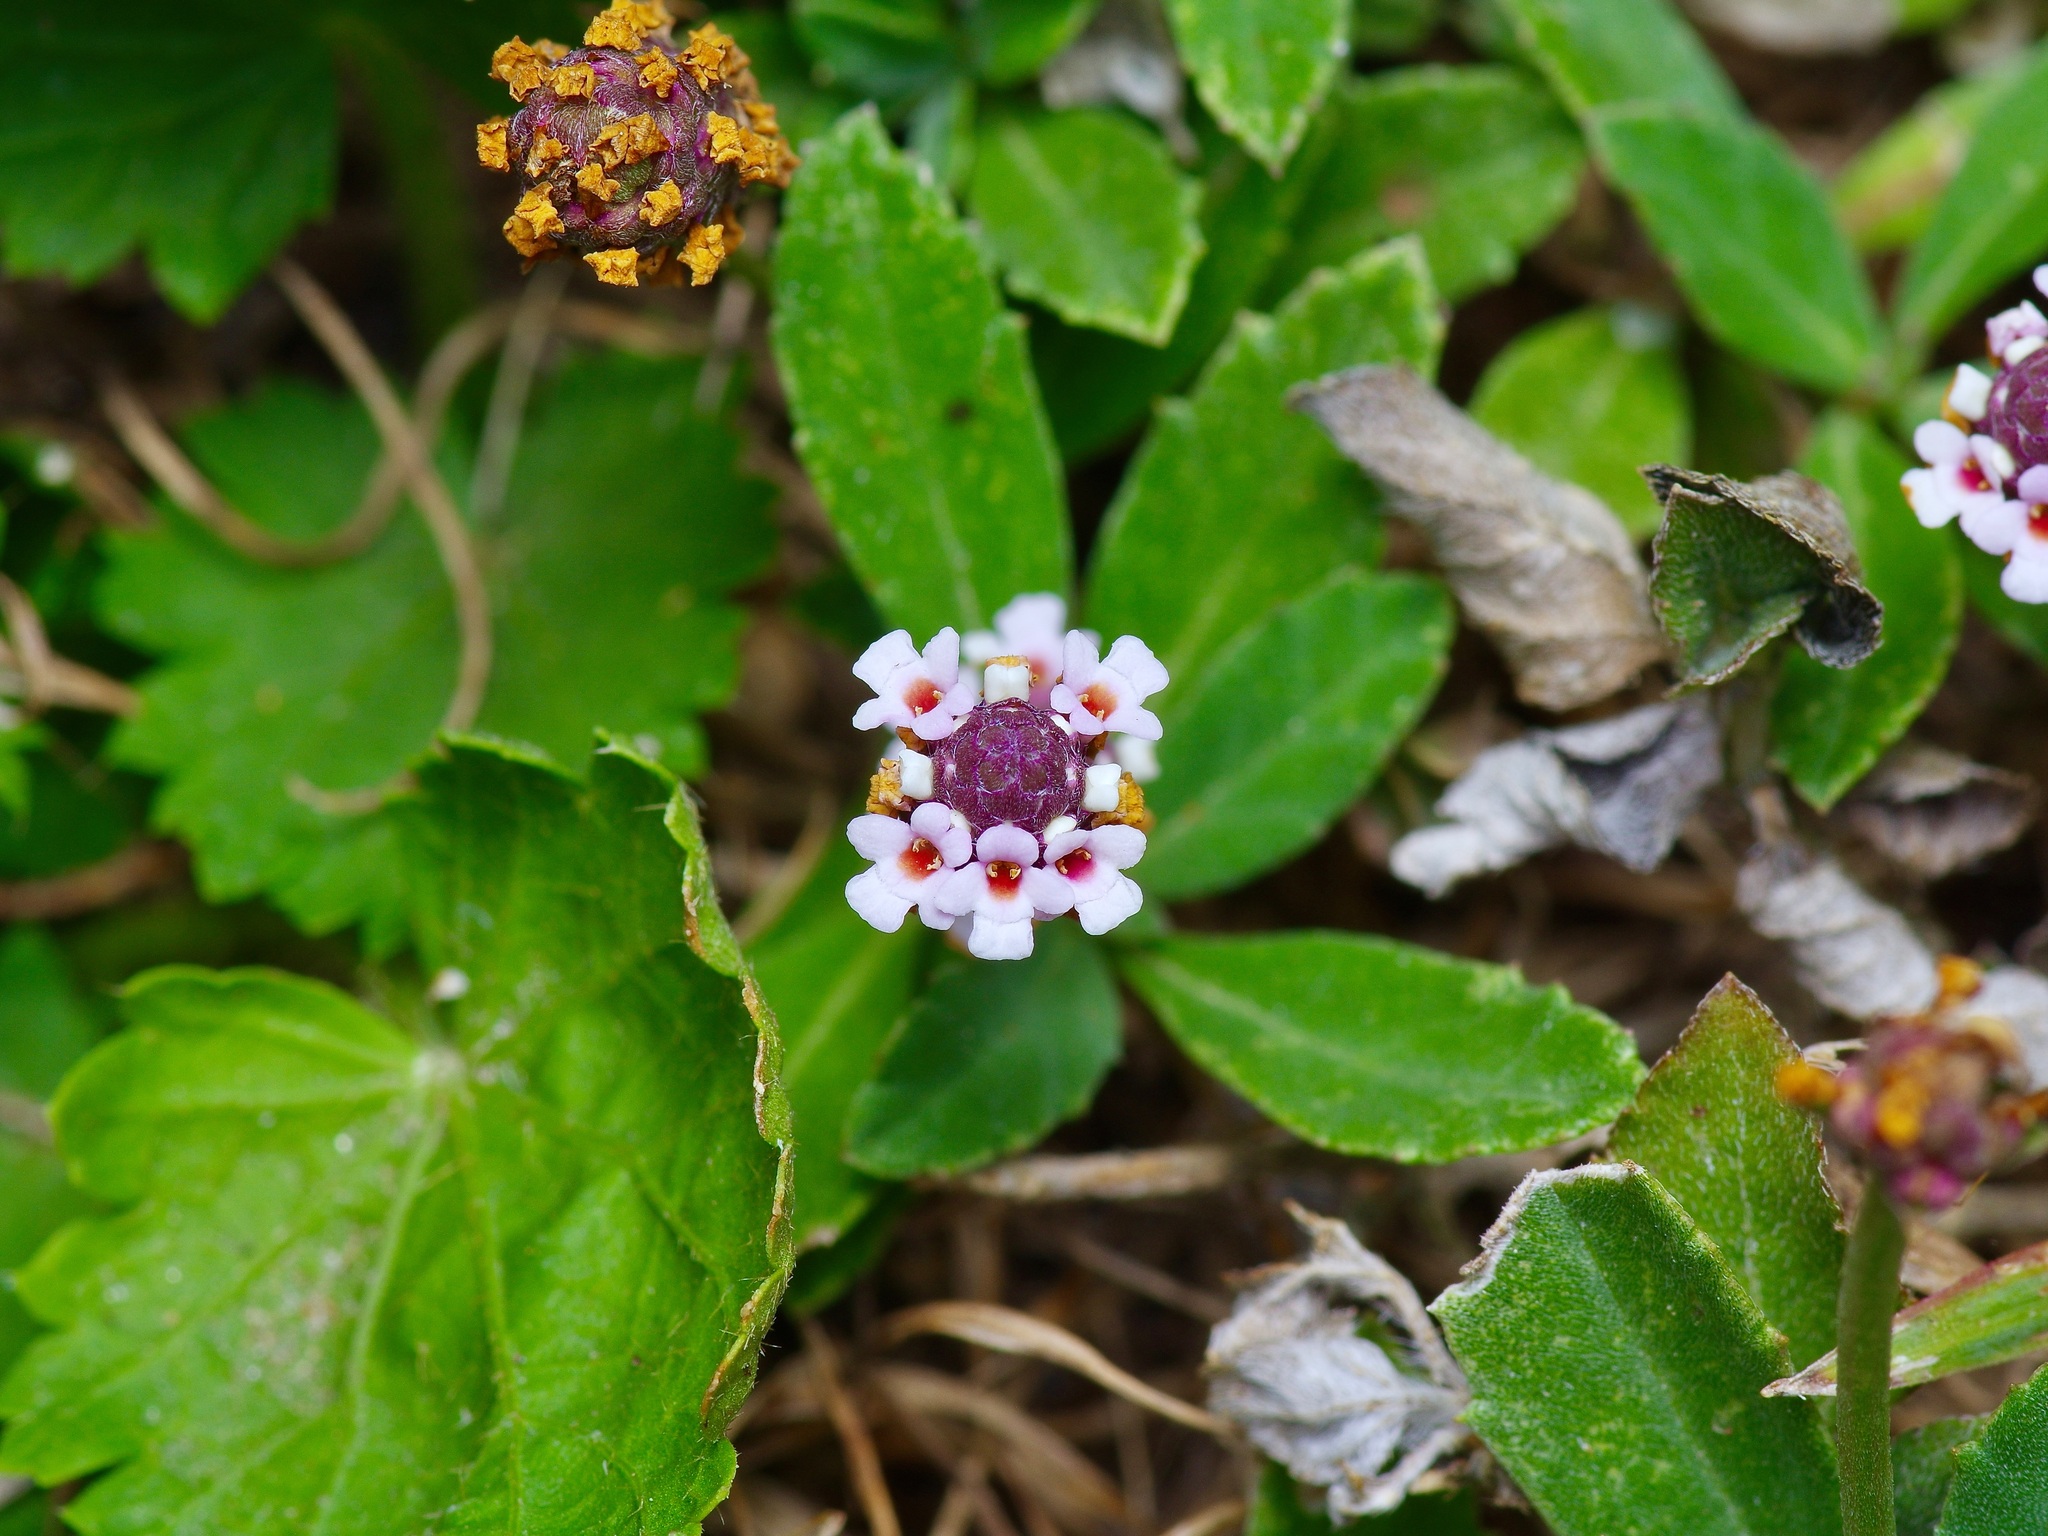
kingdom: Plantae
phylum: Tracheophyta
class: Magnoliopsida
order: Lamiales
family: Verbenaceae
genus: Phyla
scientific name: Phyla nodiflora
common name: Frogfruit
